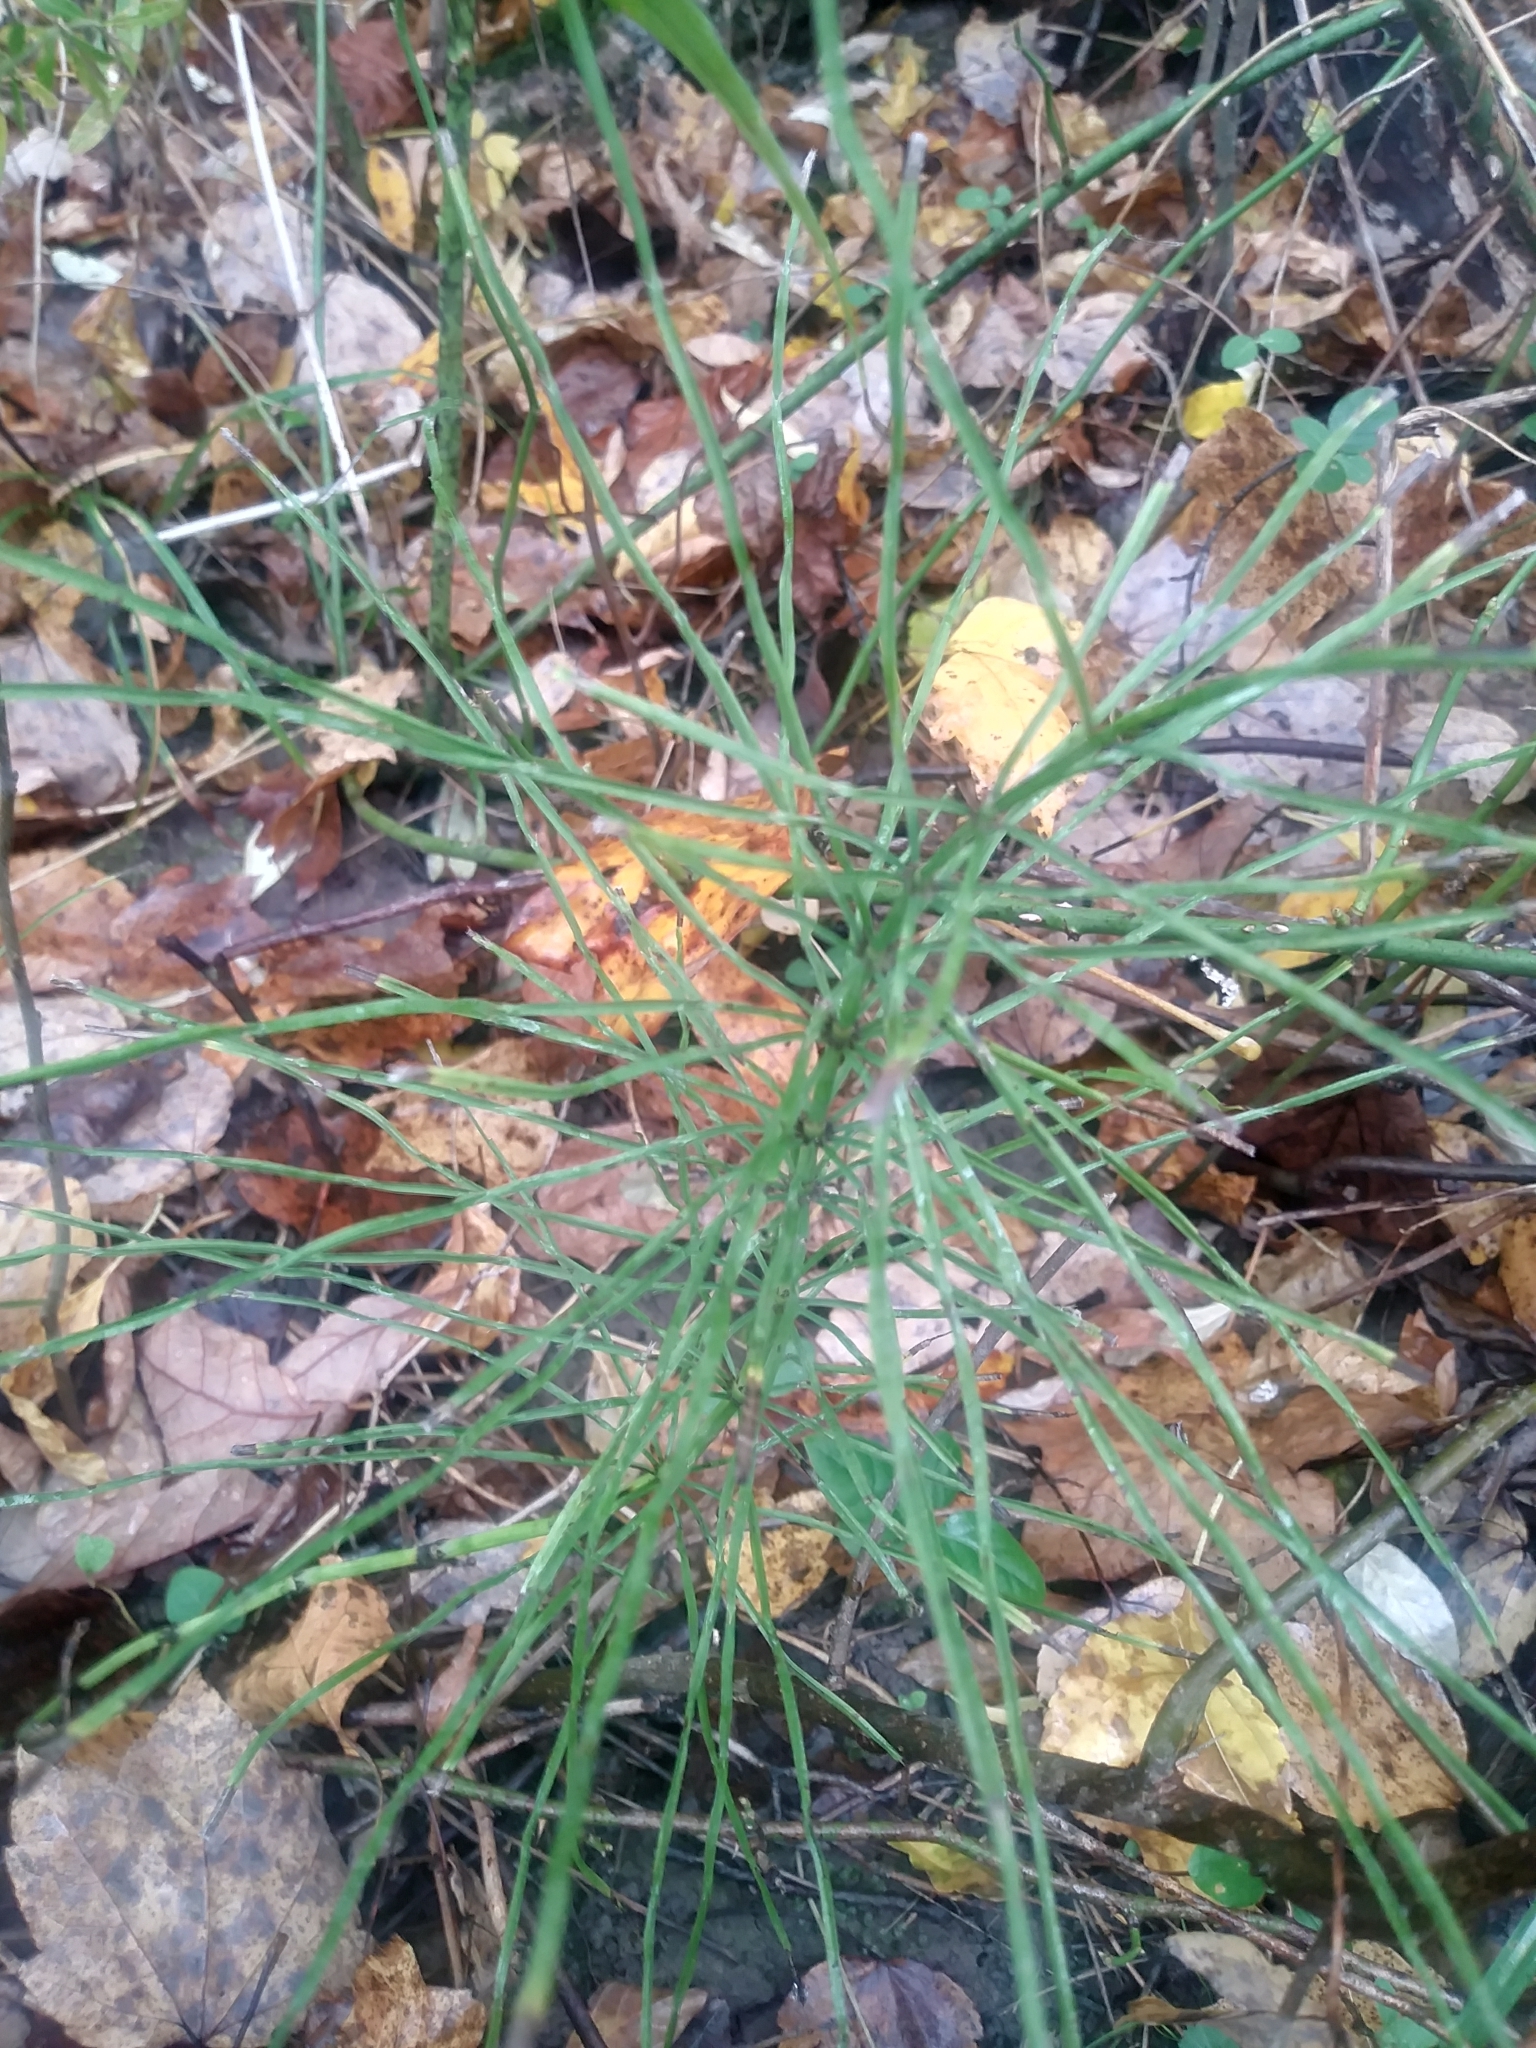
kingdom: Plantae
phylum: Tracheophyta
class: Polypodiopsida
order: Equisetales
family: Equisetaceae
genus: Equisetum
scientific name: Equisetum arvense
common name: Field horsetail
